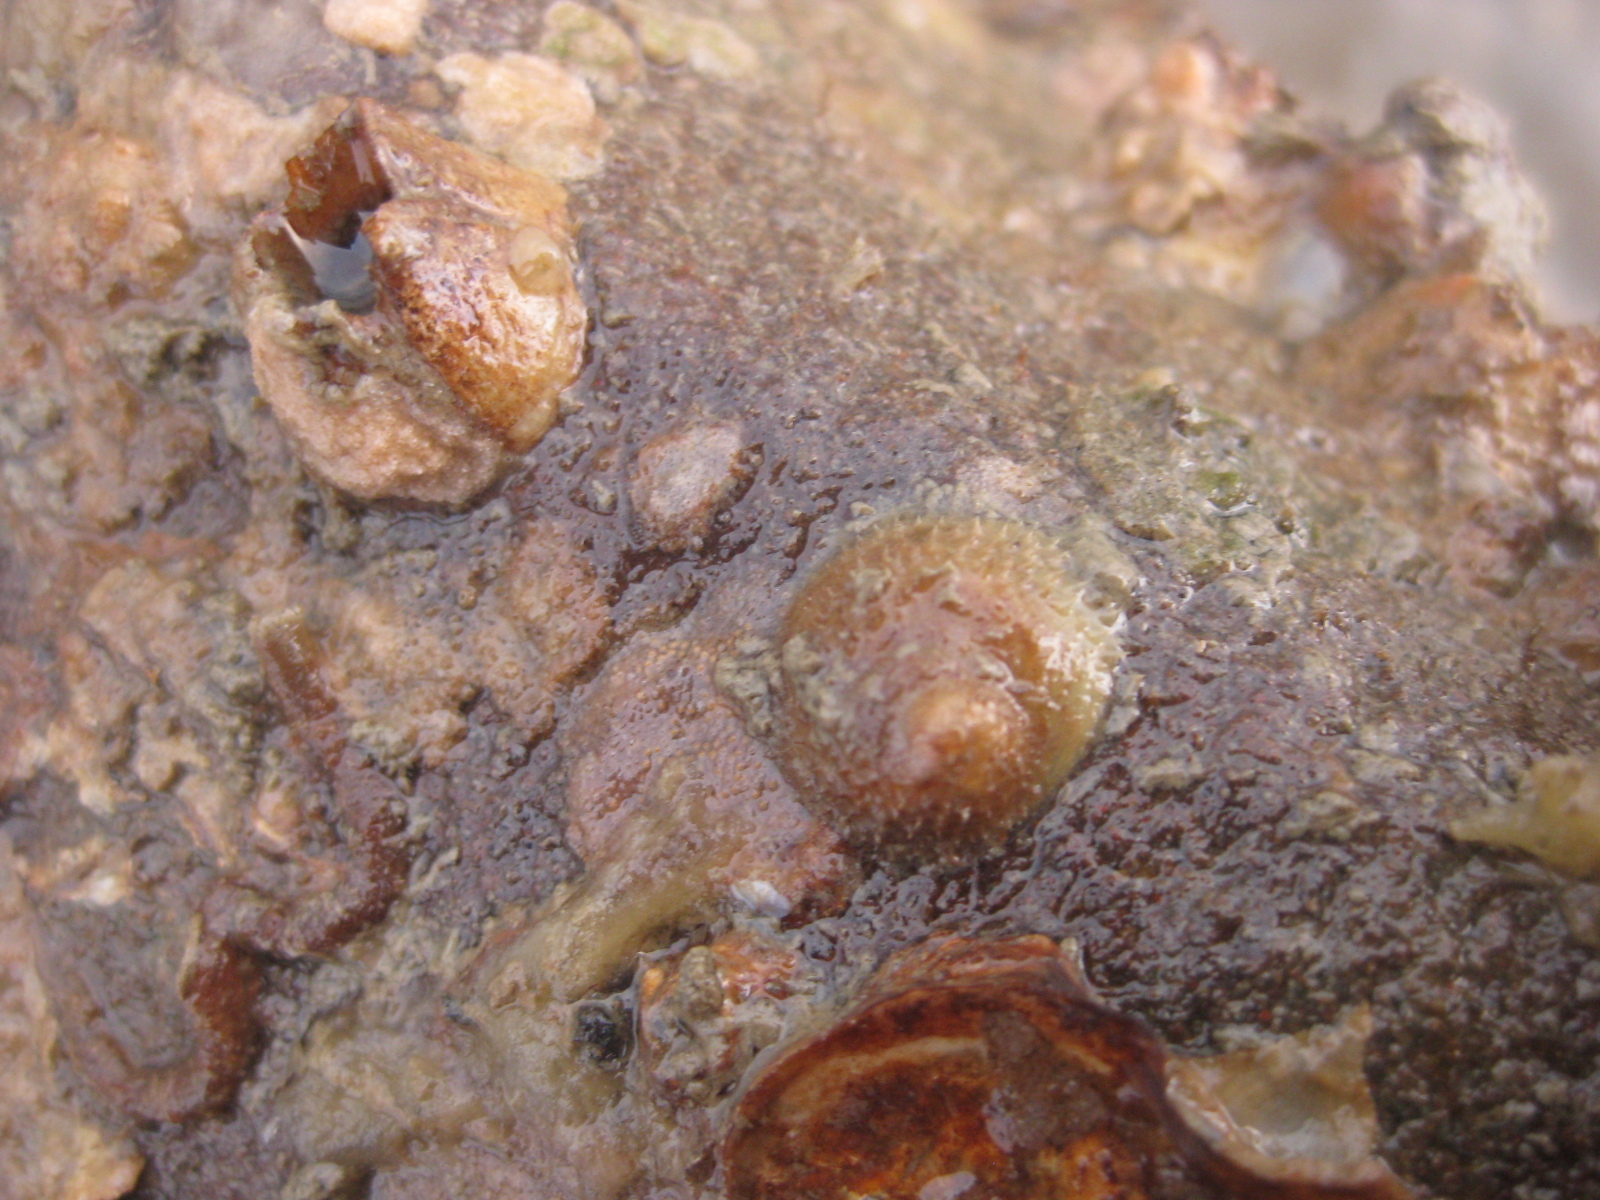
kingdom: Animalia
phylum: Mollusca
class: Gastropoda
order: Littorinimorpha
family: Calyptraeidae
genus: Sigapatella
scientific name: Sigapatella novaezelandiae
